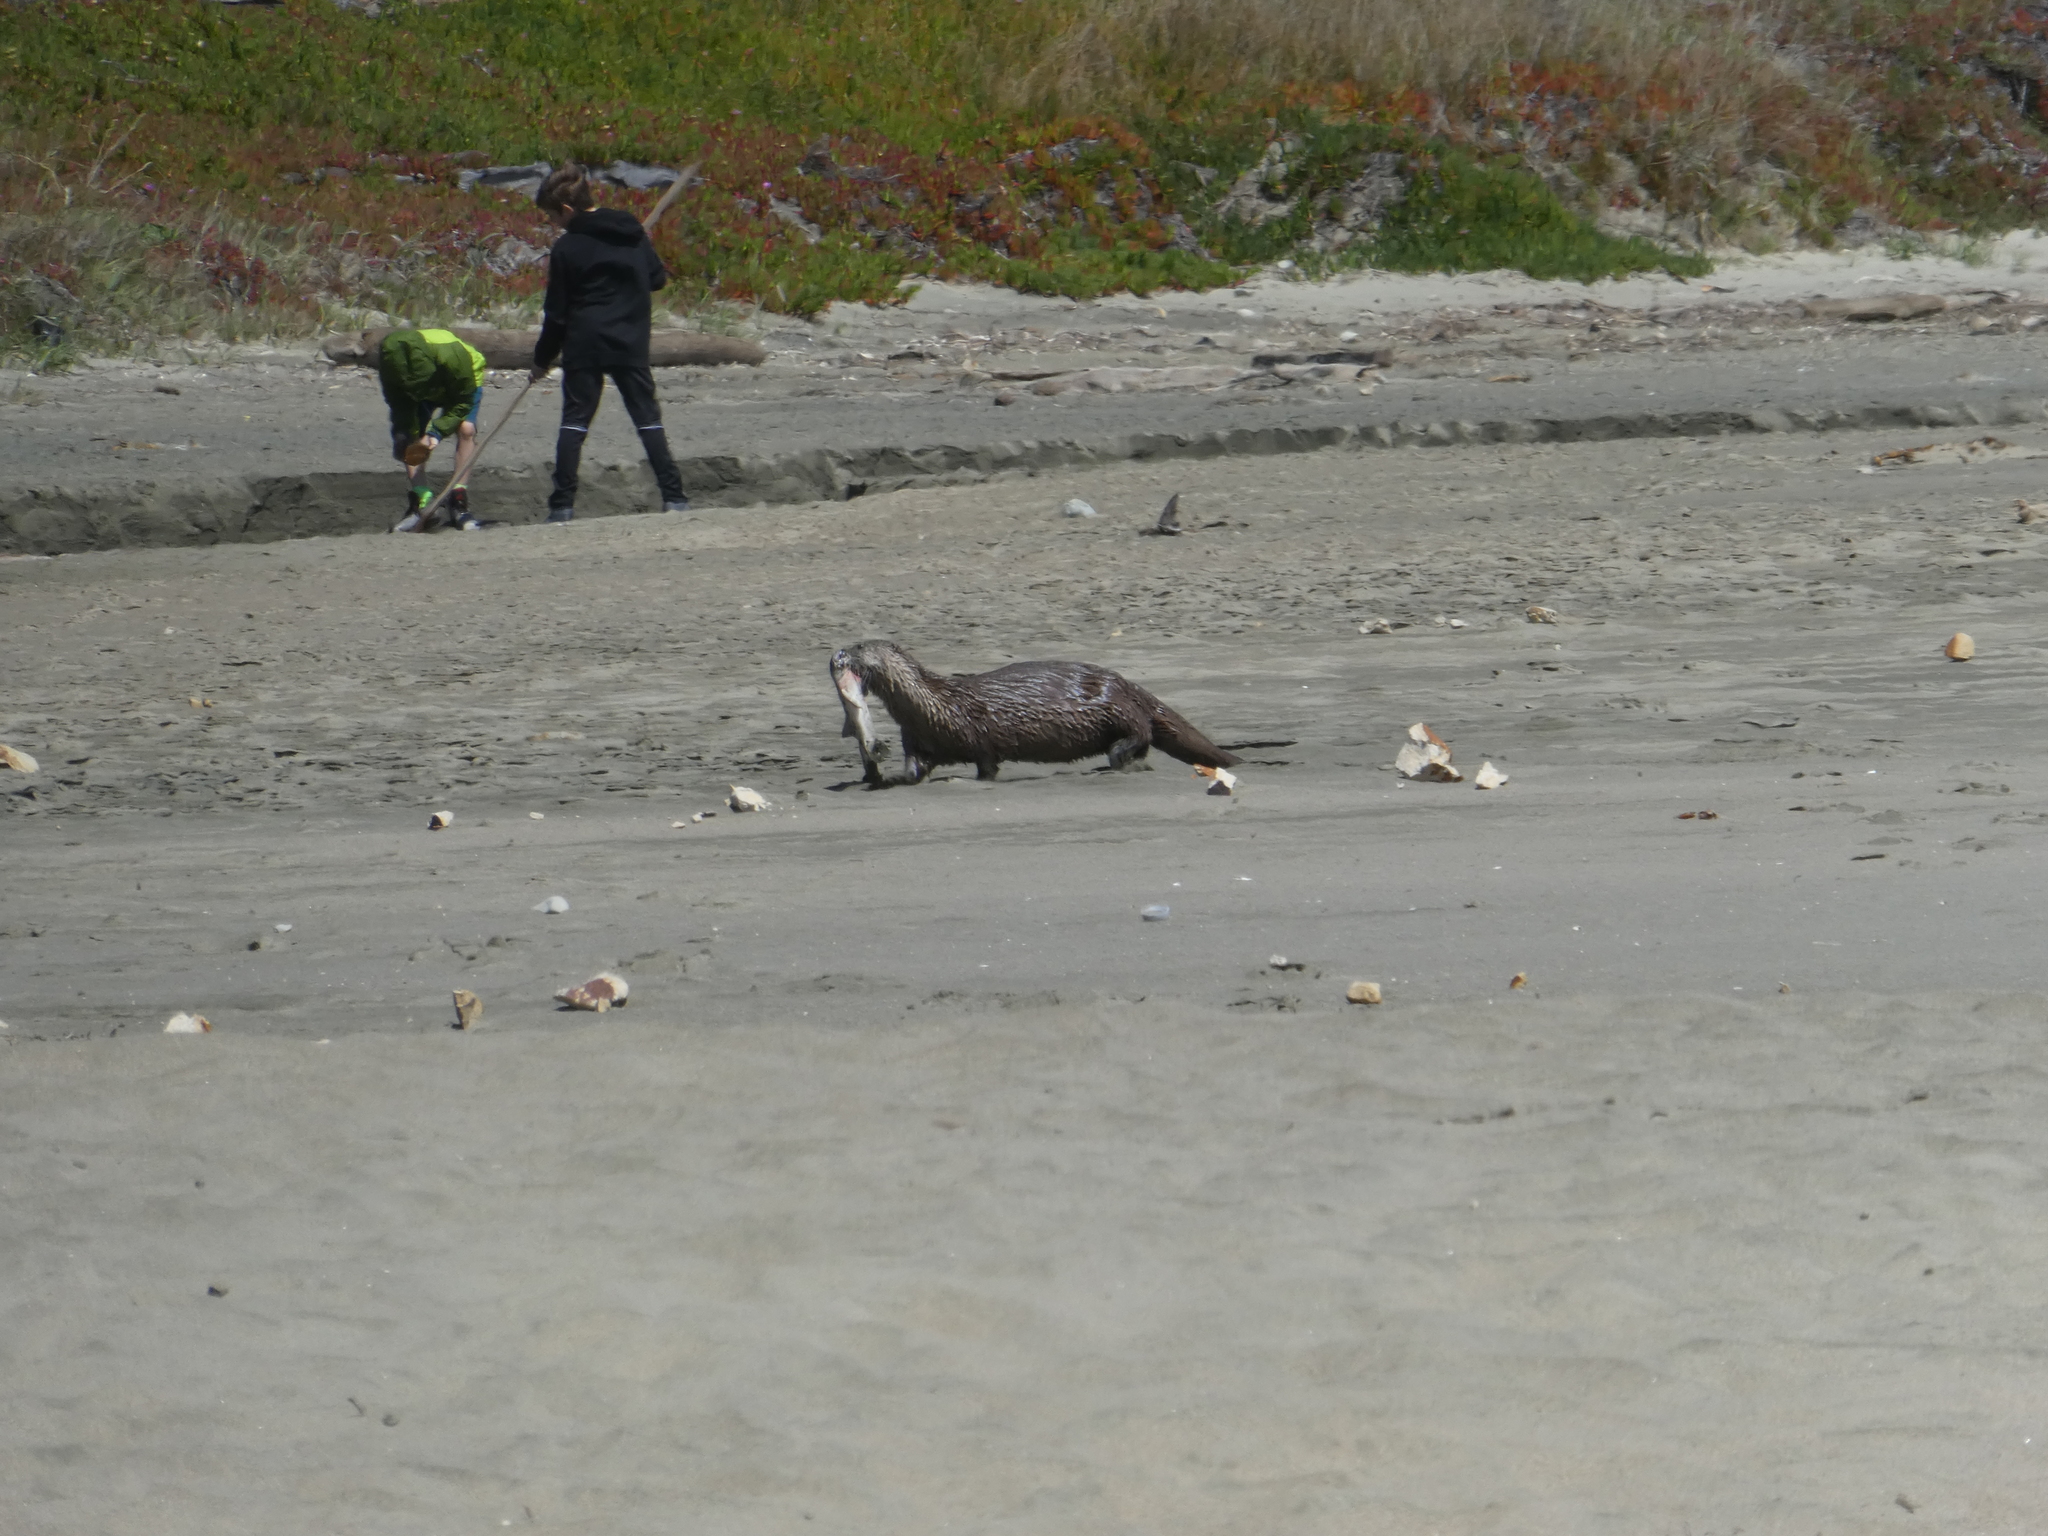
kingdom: Animalia
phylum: Chordata
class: Mammalia
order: Carnivora
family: Mustelidae
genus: Lontra
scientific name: Lontra canadensis
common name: North american river otter
